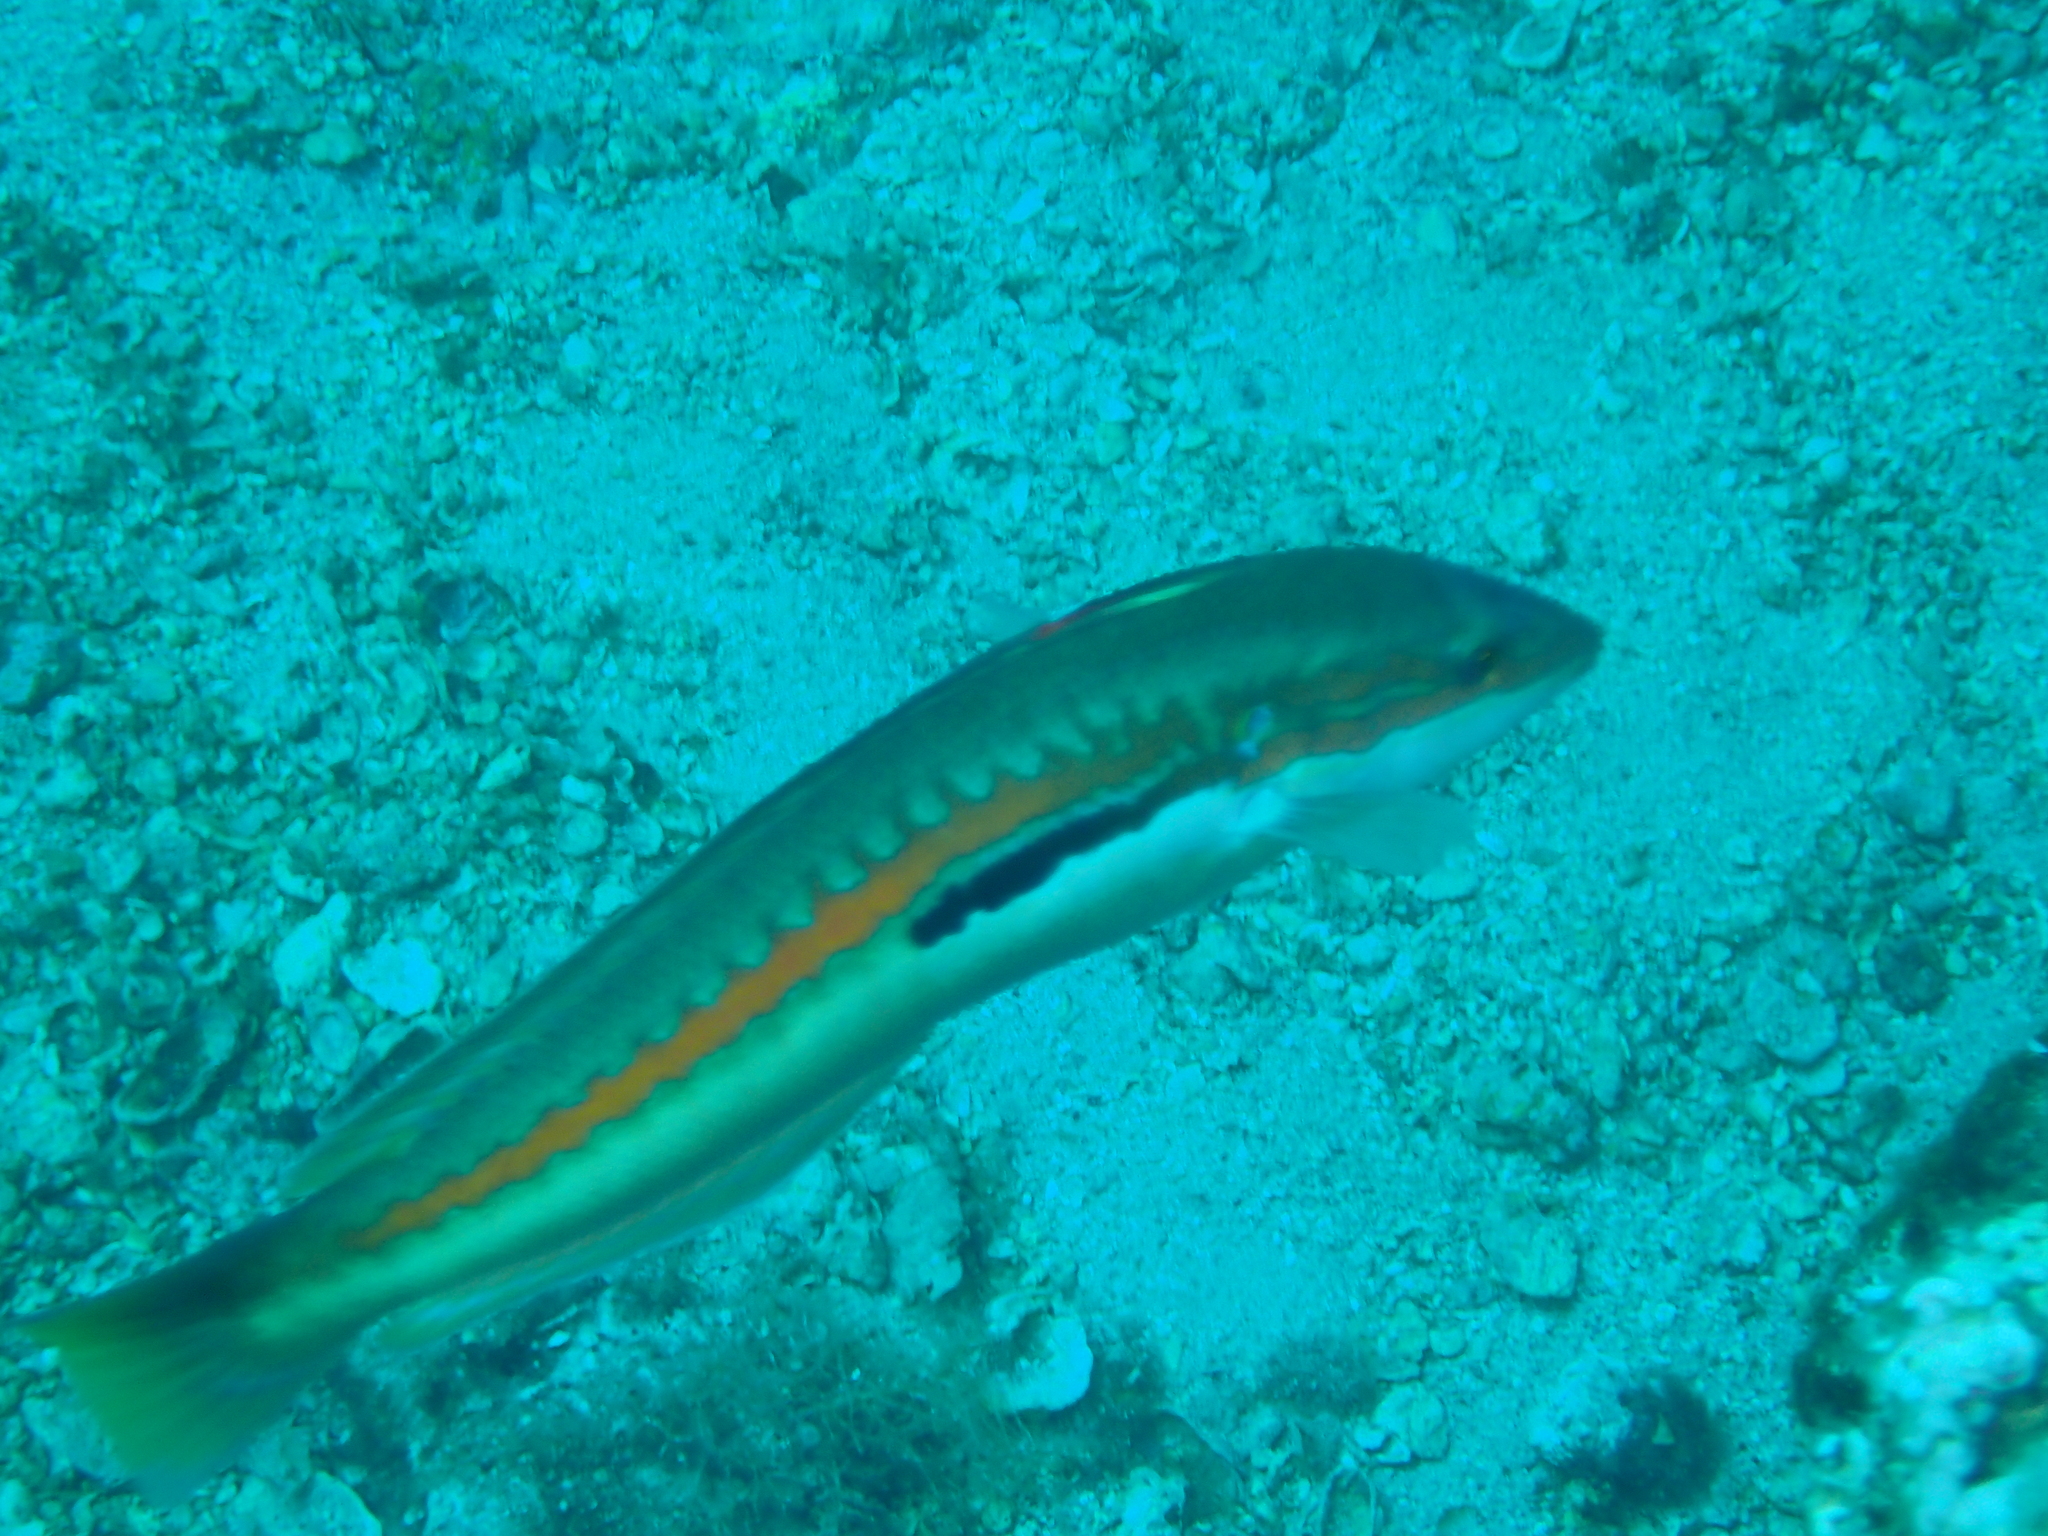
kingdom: Animalia
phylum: Chordata
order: Perciformes
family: Labridae
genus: Coris
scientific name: Coris julis
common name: Rainbow wrasse
